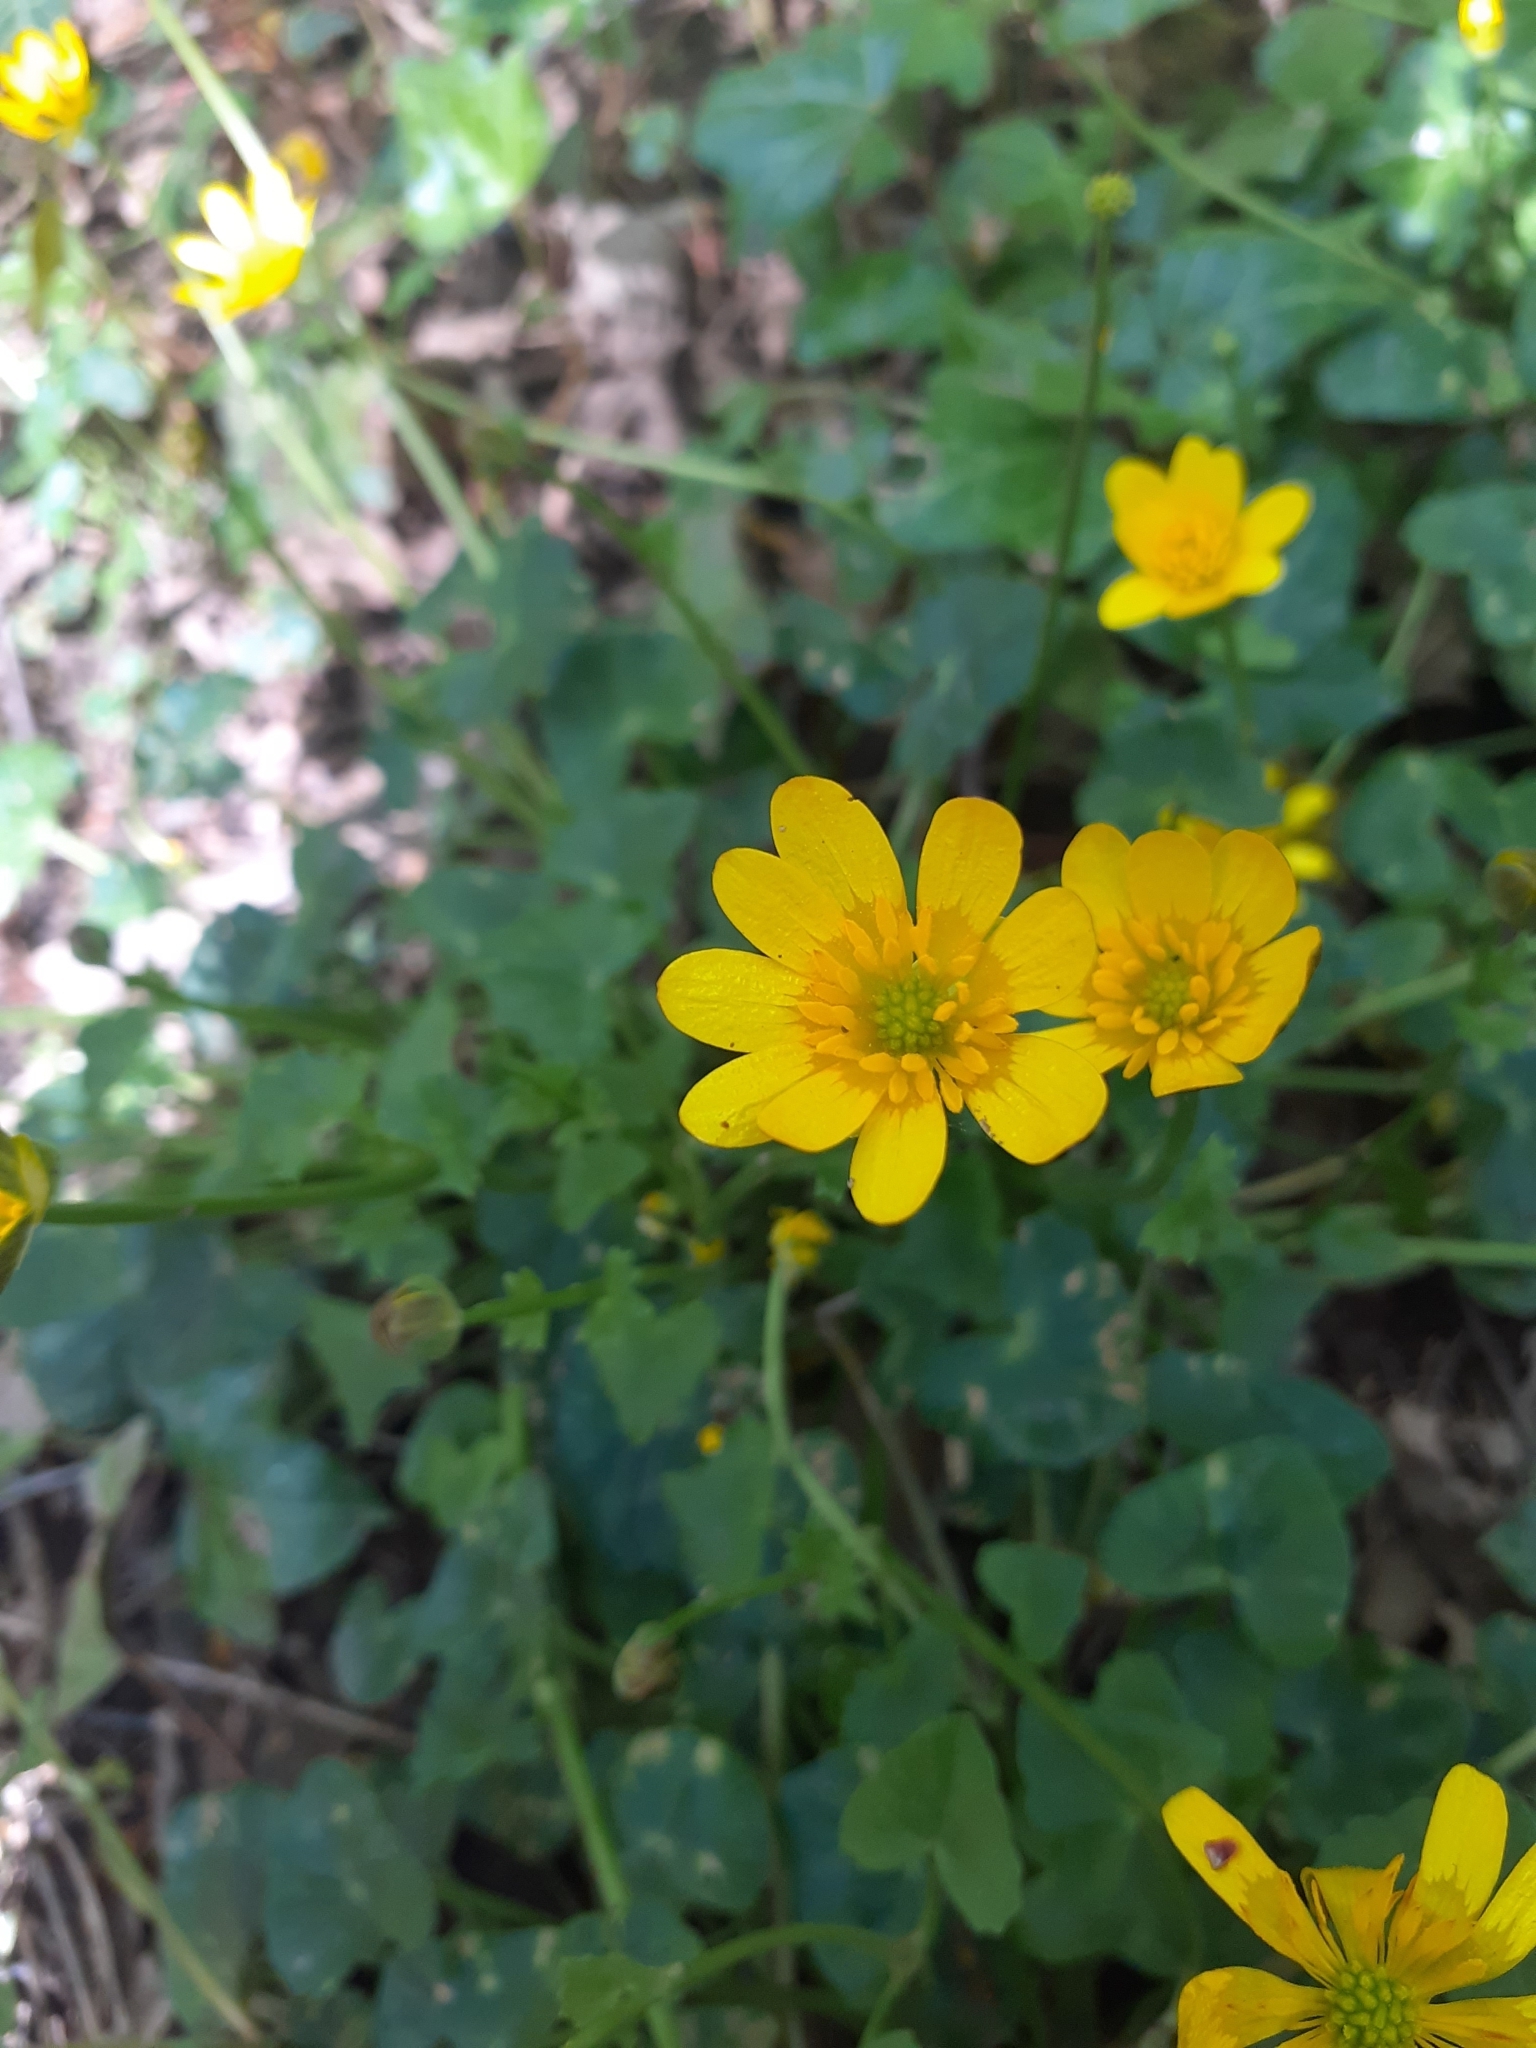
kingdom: Plantae
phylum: Tracheophyta
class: Magnoliopsida
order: Ranunculales
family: Ranunculaceae
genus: Ficaria
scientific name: Ficaria verna
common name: Lesser celandine
